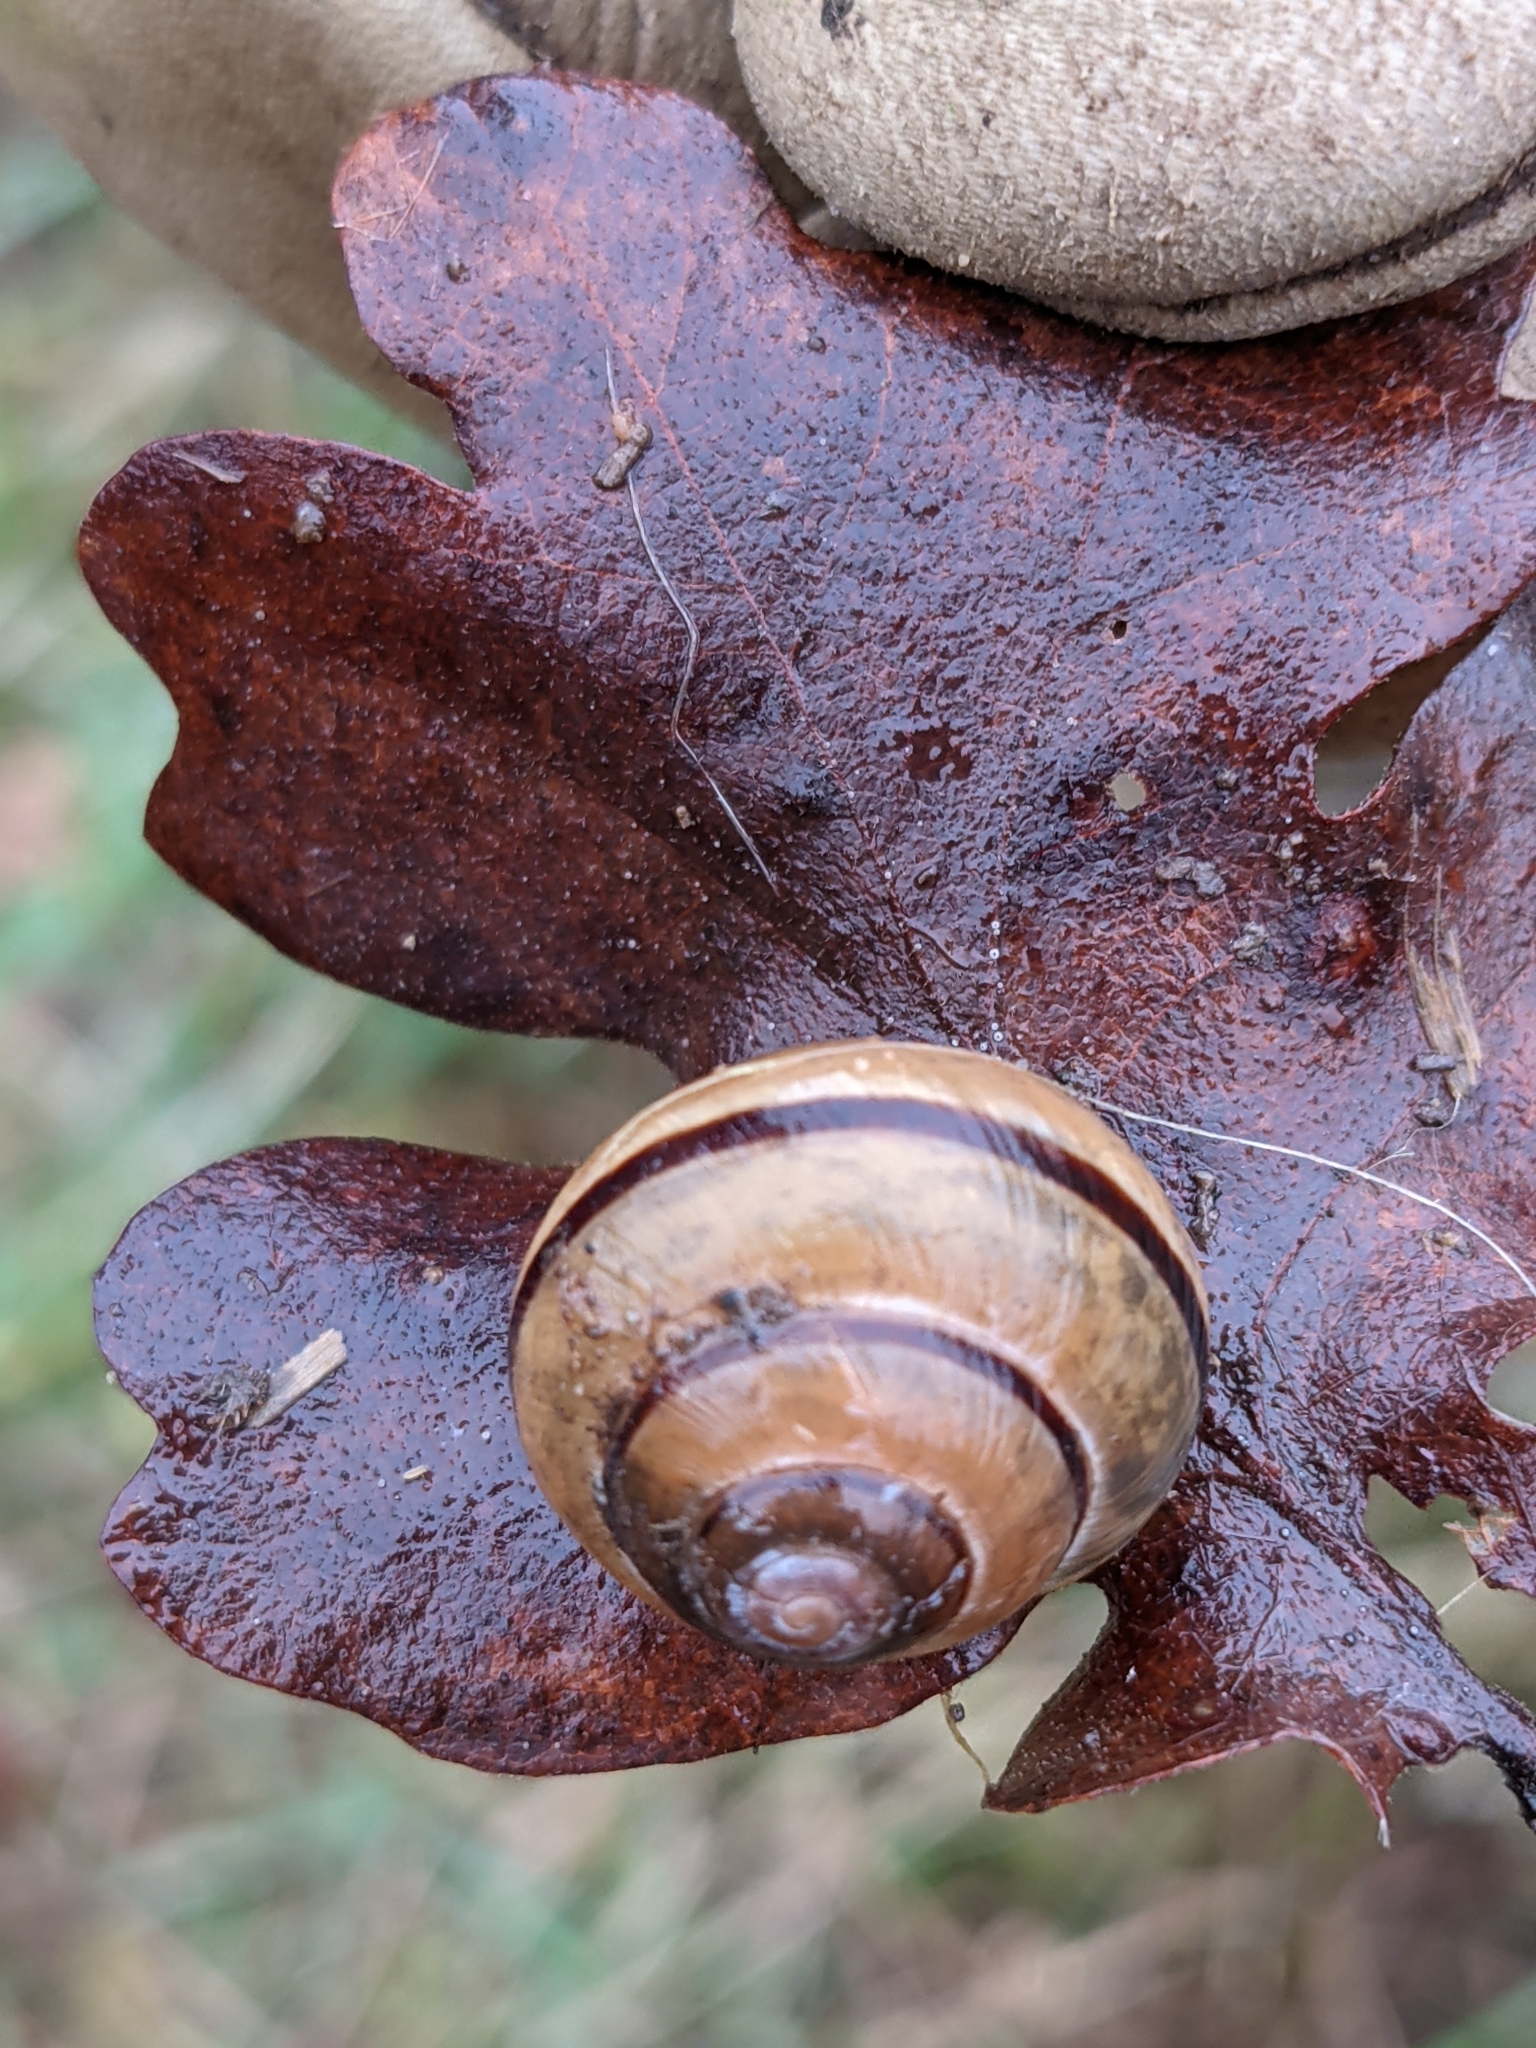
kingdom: Animalia
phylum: Mollusca
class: Gastropoda
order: Stylommatophora
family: Helicidae
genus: Cepaea
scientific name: Cepaea nemoralis
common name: Grovesnail
